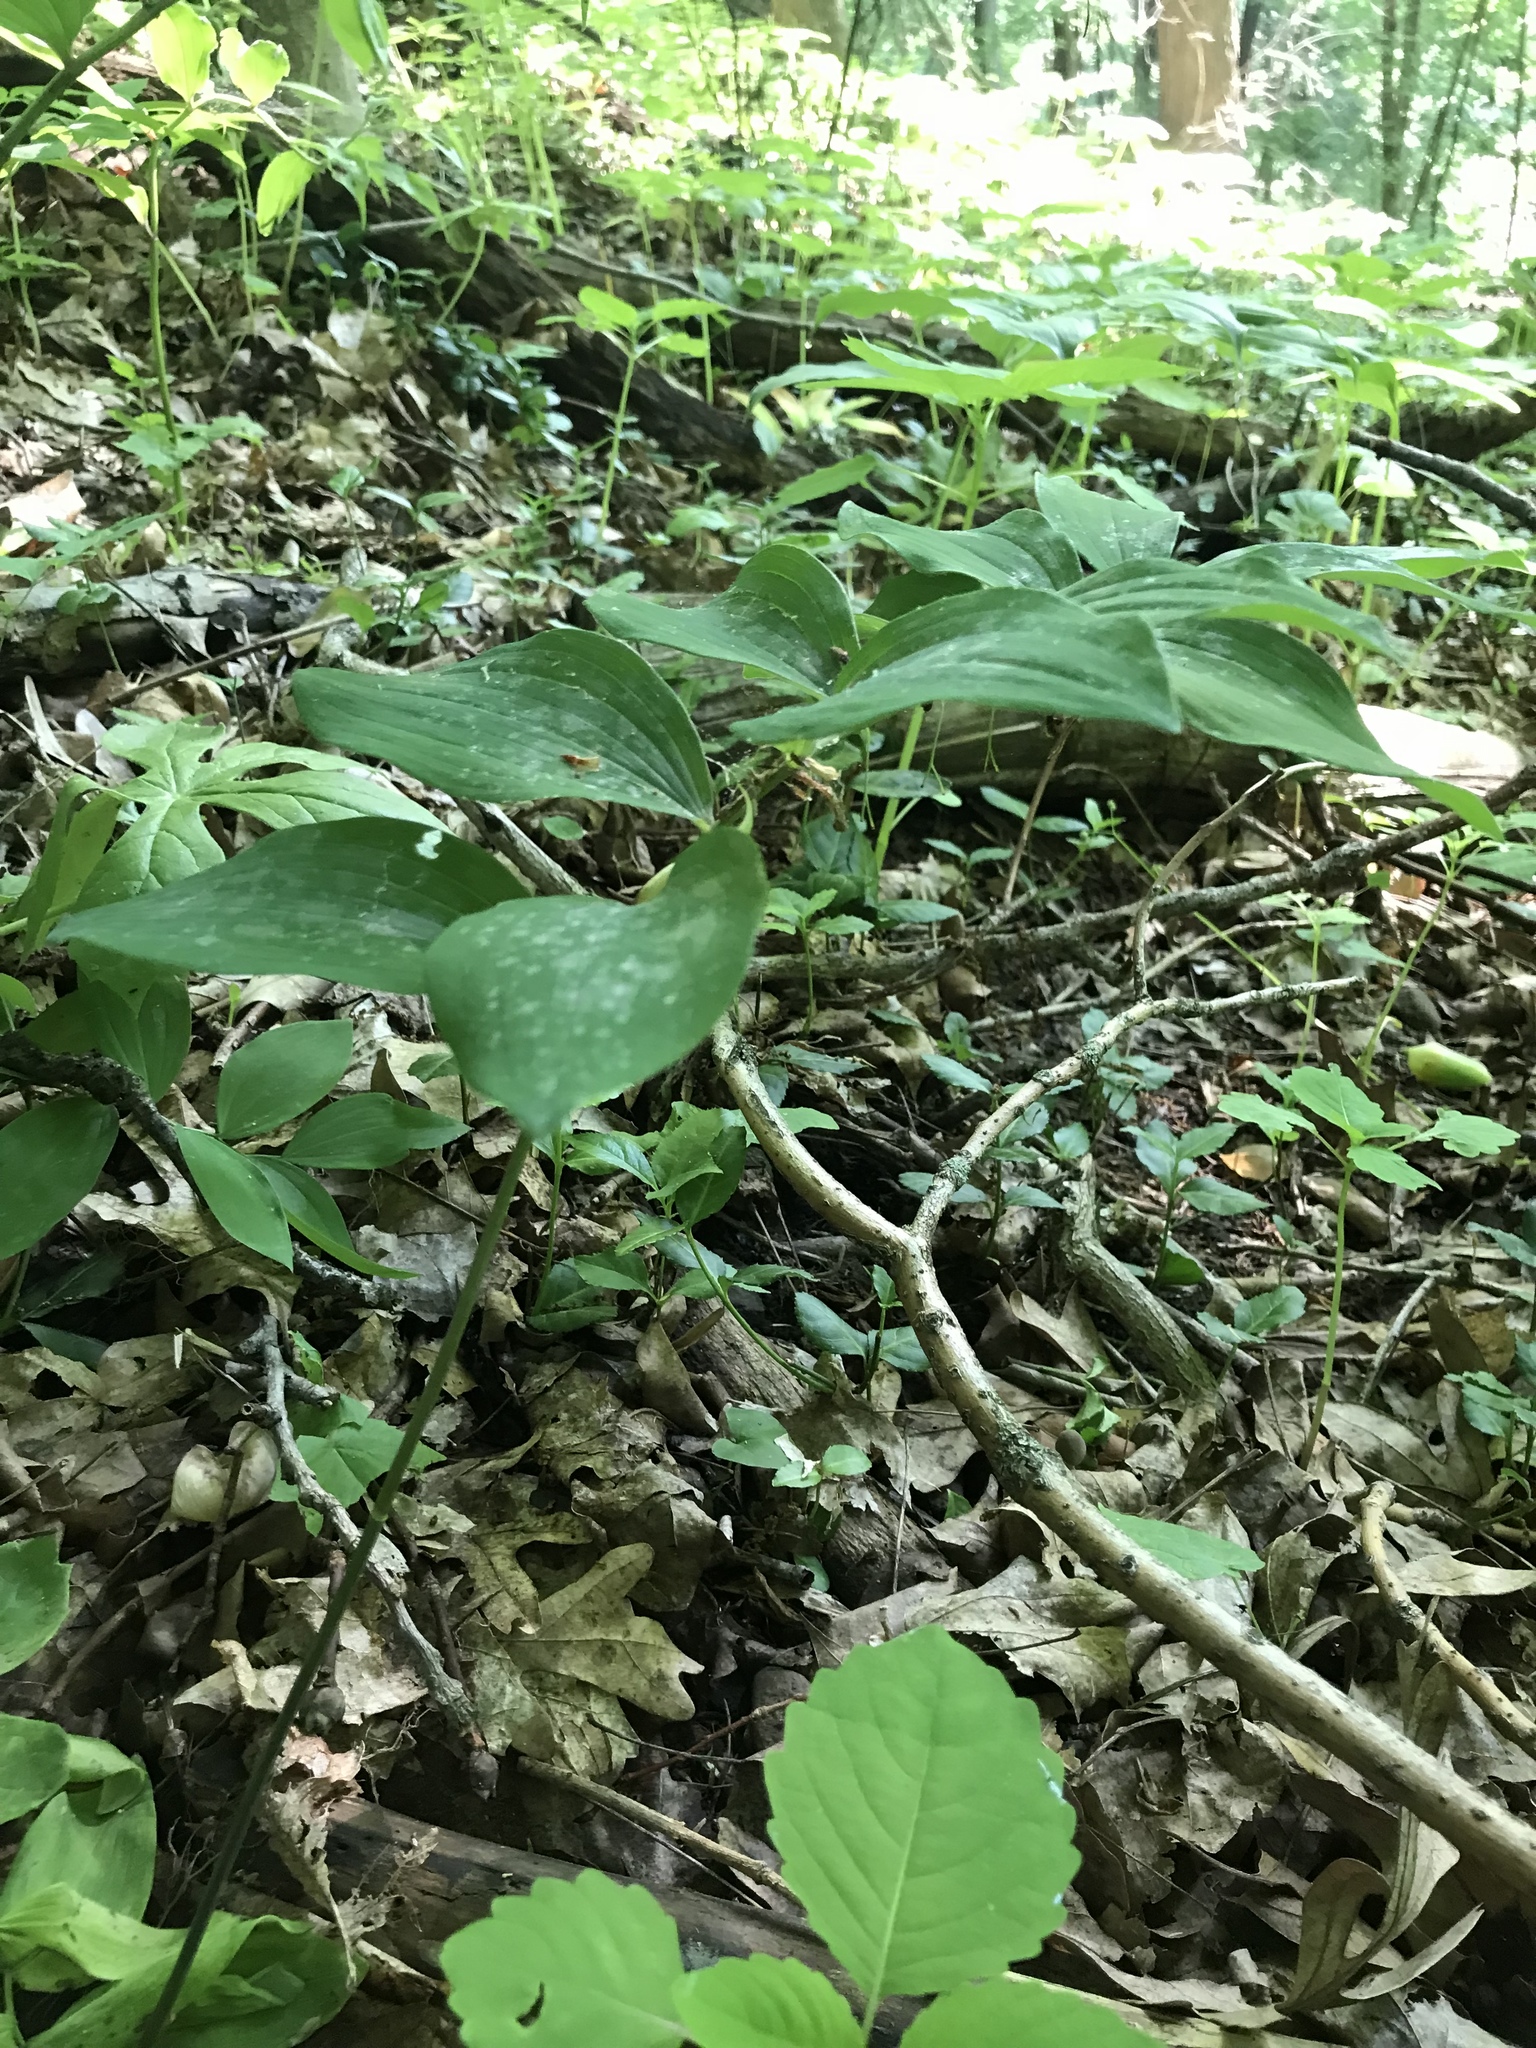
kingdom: Plantae
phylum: Tracheophyta
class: Liliopsida
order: Asparagales
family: Asparagaceae
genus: Polygonatum
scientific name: Polygonatum pubescens
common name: Downy solomon's seal
